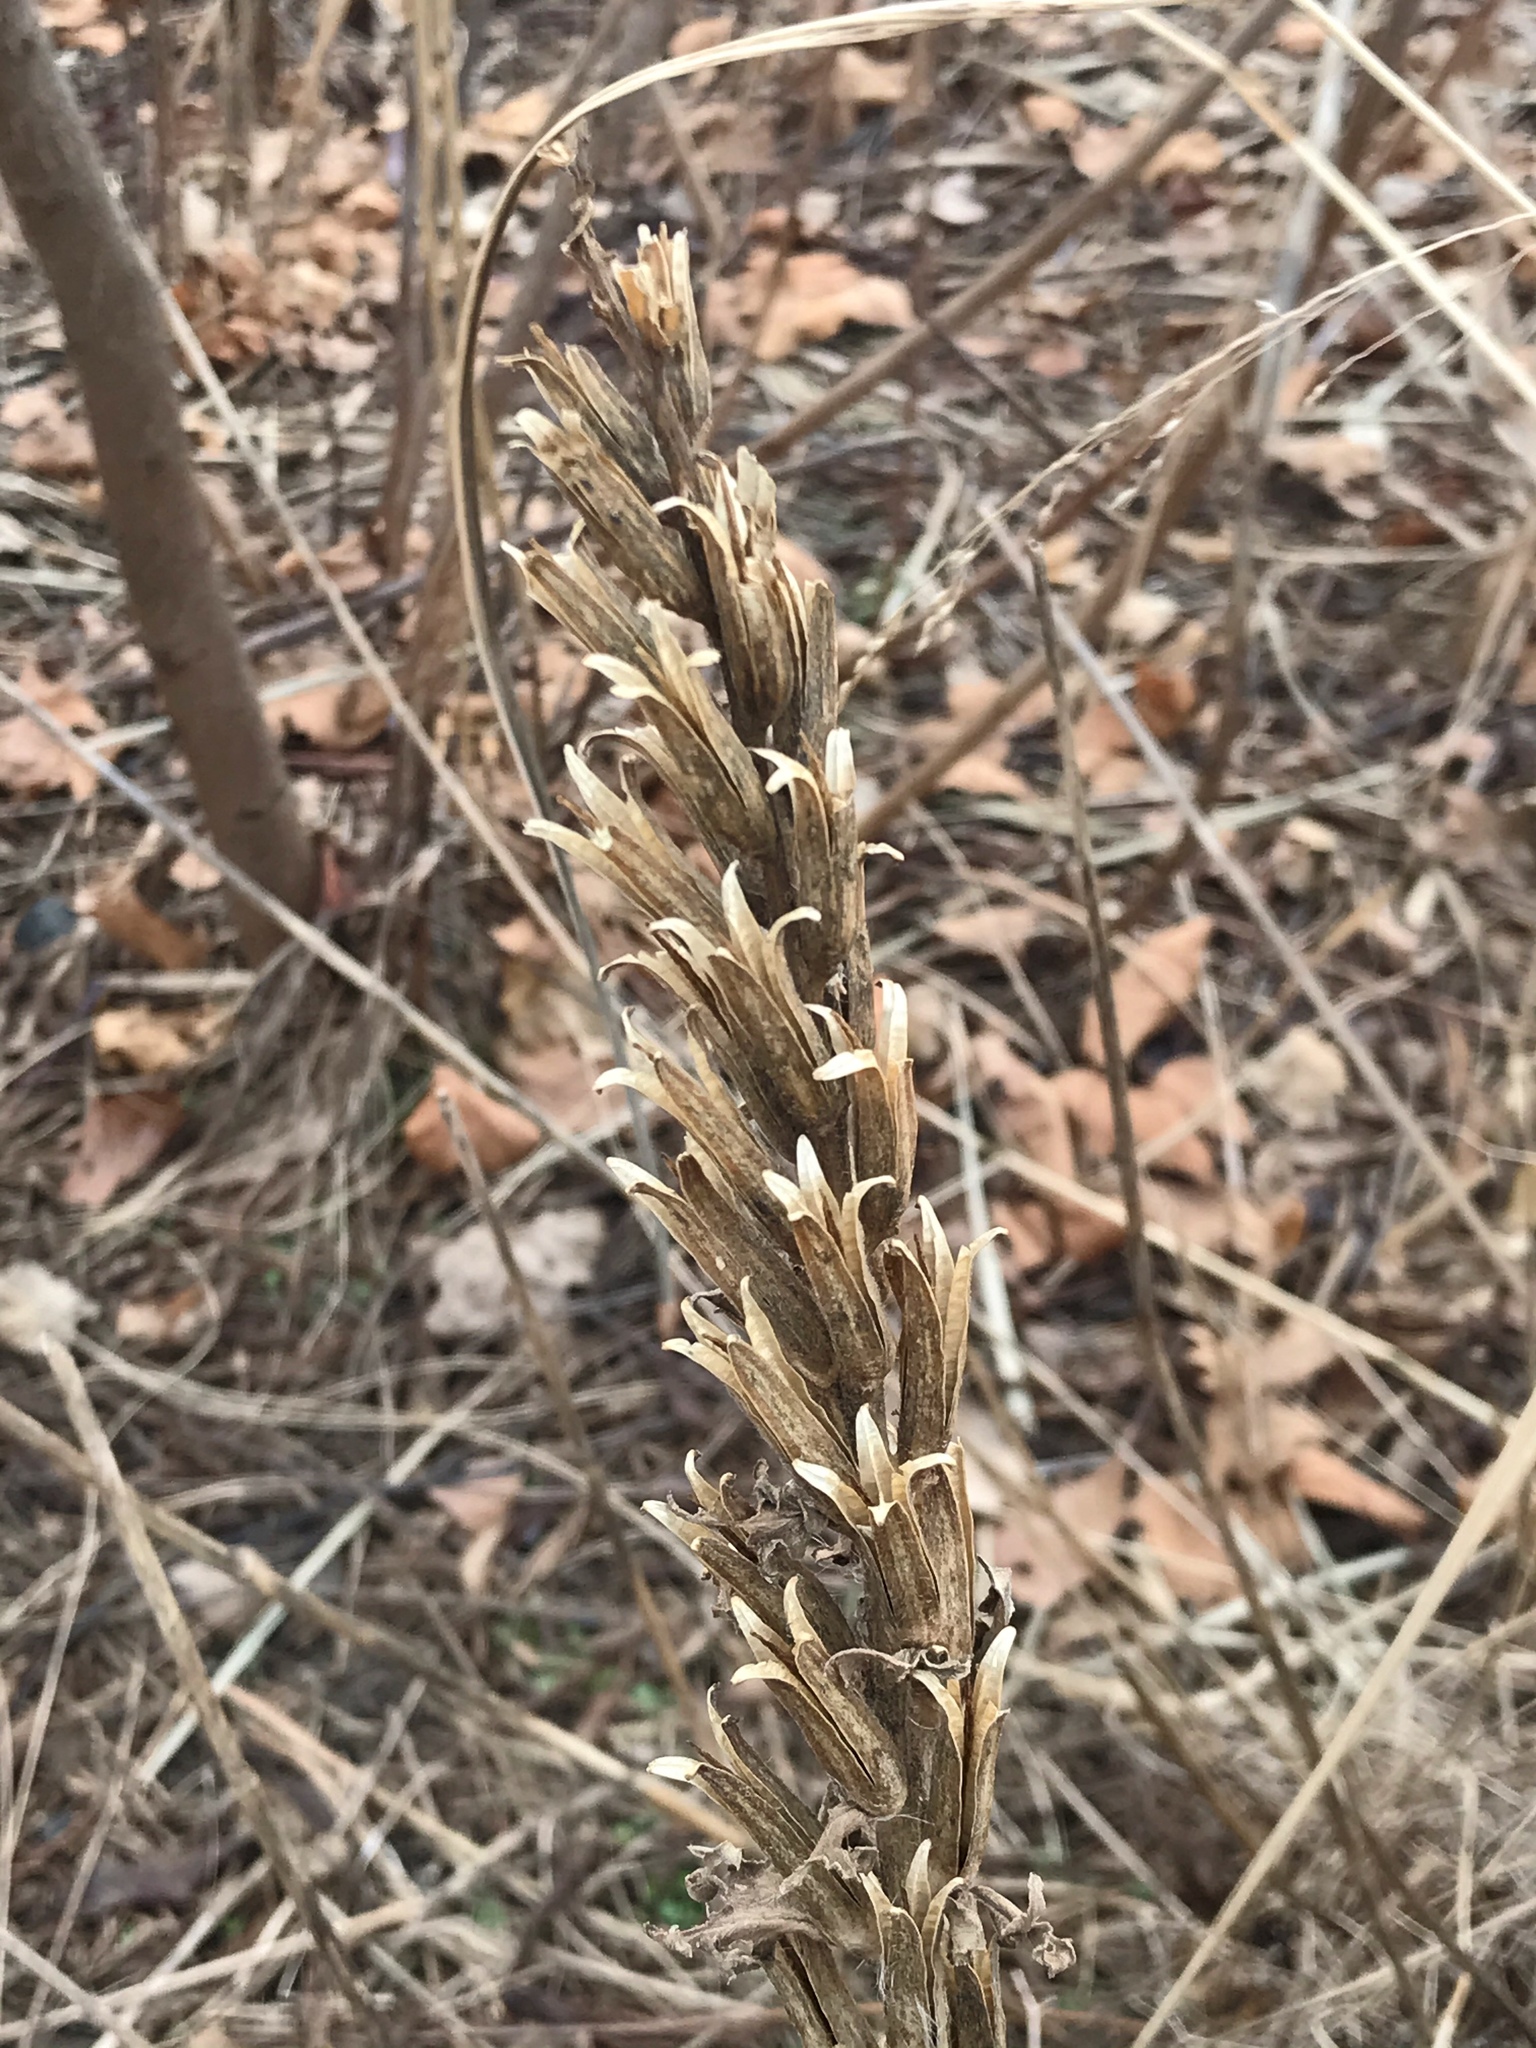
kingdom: Plantae
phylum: Tracheophyta
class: Magnoliopsida
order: Myrtales
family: Onagraceae
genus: Oenothera
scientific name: Oenothera biennis
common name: Common evening-primrose
